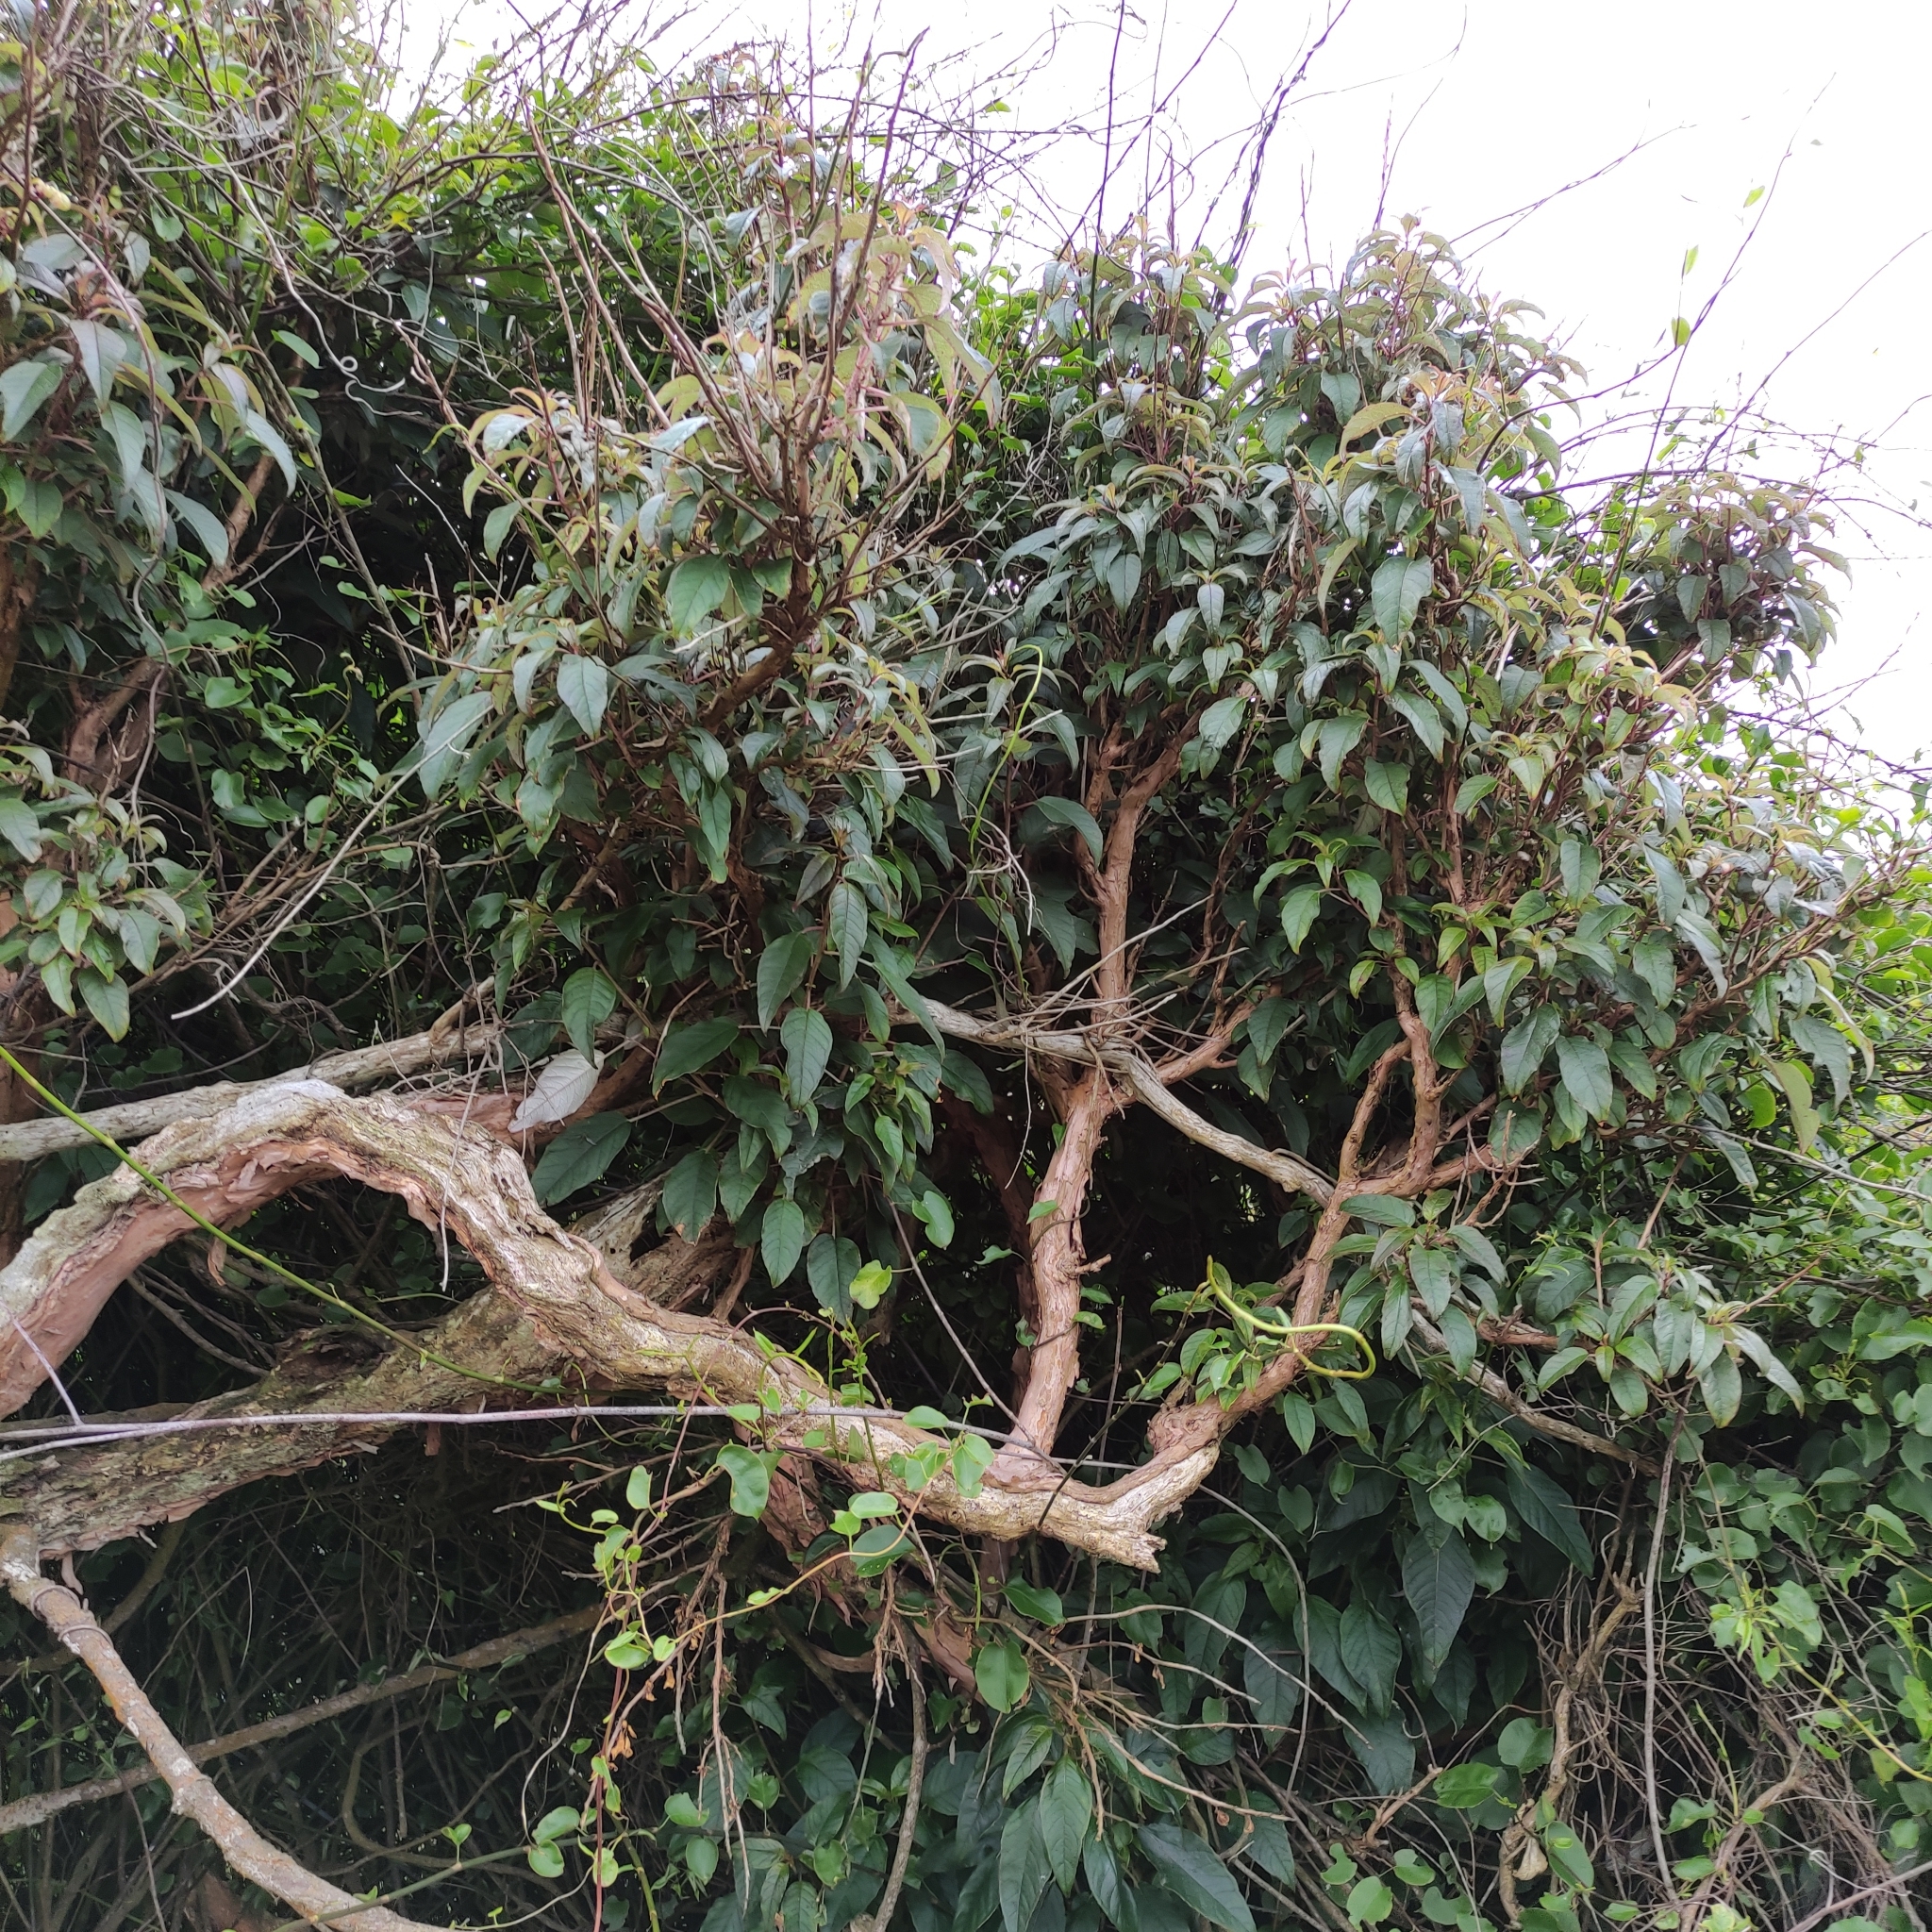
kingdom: Plantae
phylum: Tracheophyta
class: Magnoliopsida
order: Myrtales
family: Onagraceae
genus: Fuchsia
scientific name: Fuchsia excorticata
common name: Tree fuchsia
